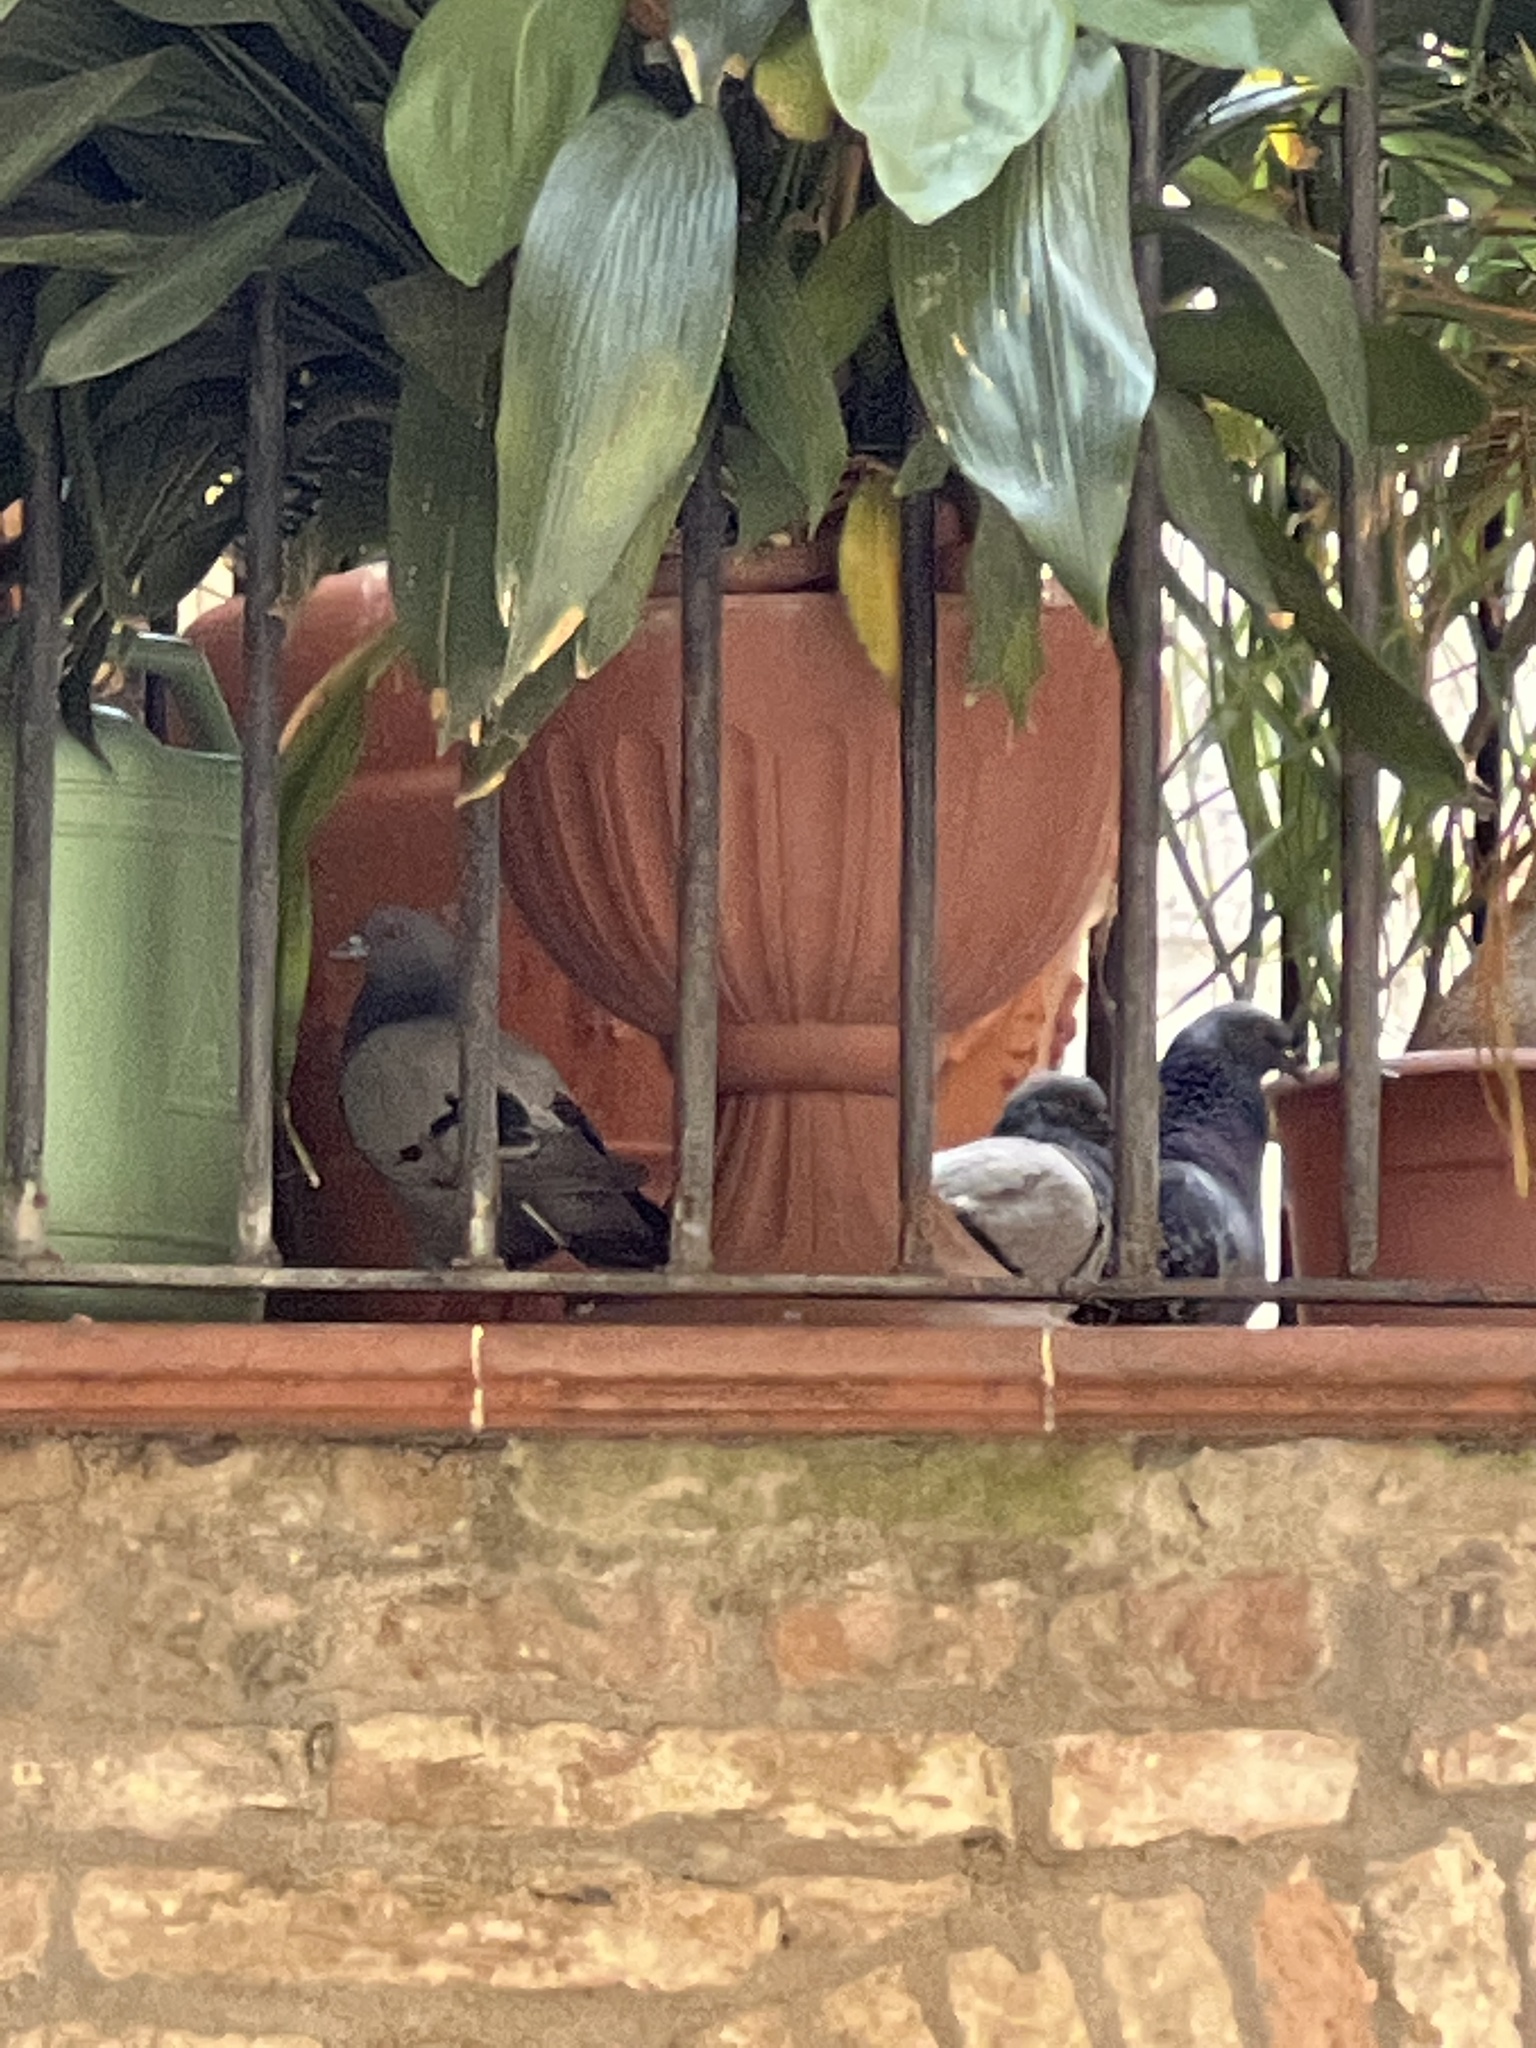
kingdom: Animalia
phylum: Chordata
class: Aves
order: Columbiformes
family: Columbidae
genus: Columba
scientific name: Columba livia
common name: Rock pigeon
